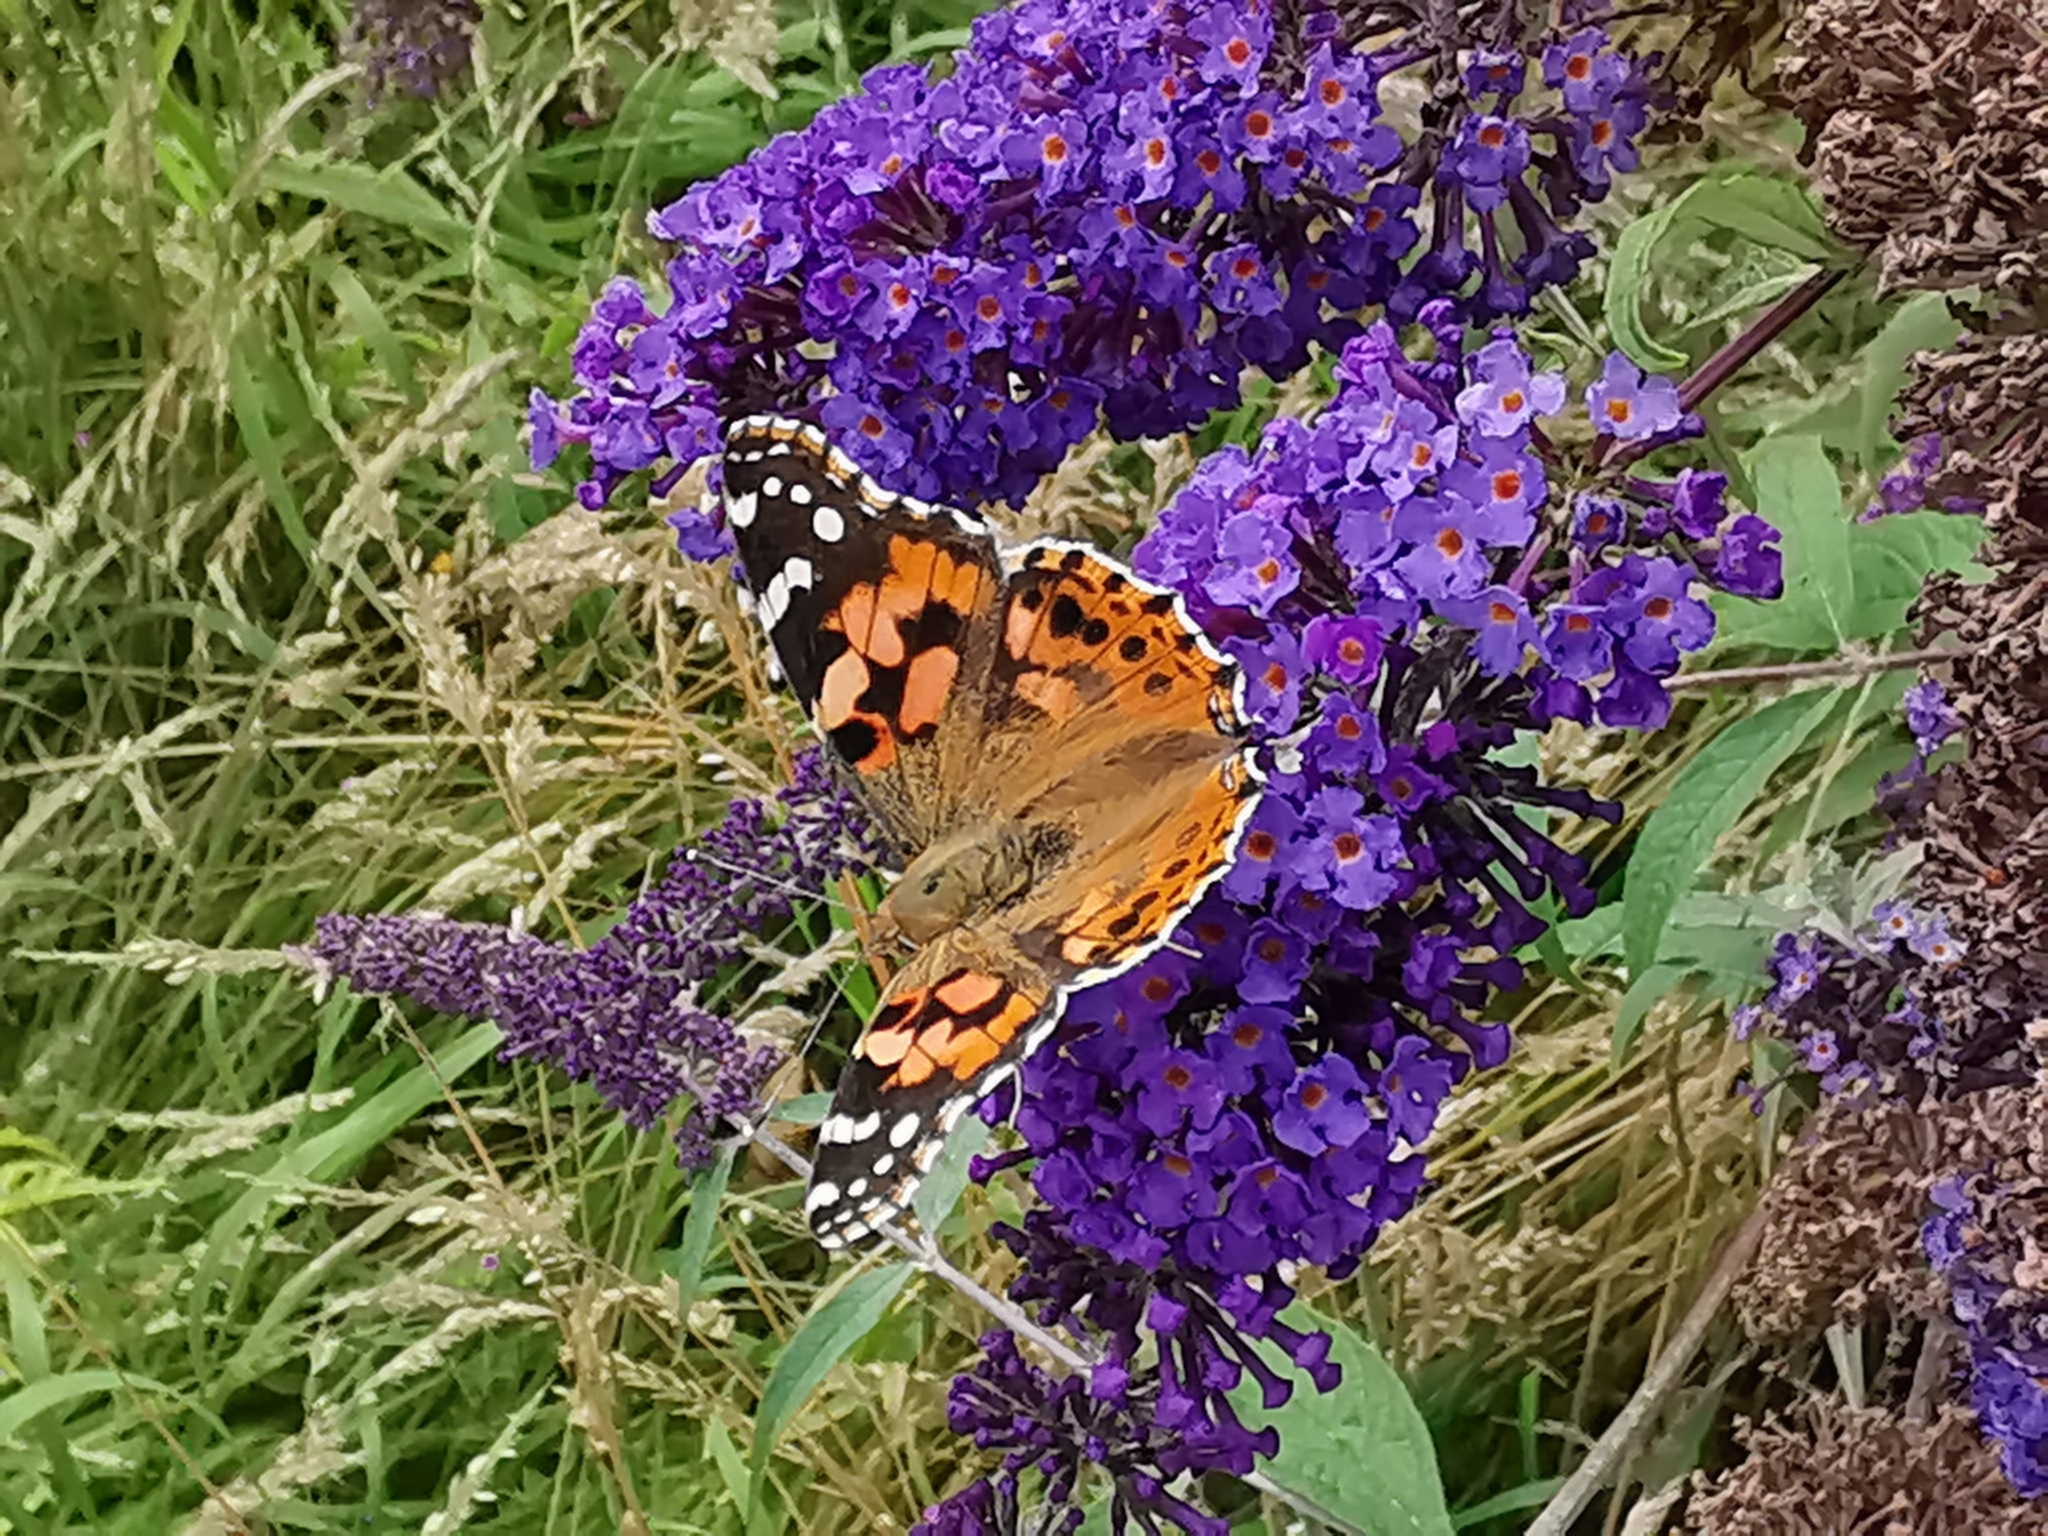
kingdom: Animalia
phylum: Arthropoda
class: Insecta
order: Lepidoptera
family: Nymphalidae
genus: Vanessa
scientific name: Vanessa cardui
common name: Painted lady
